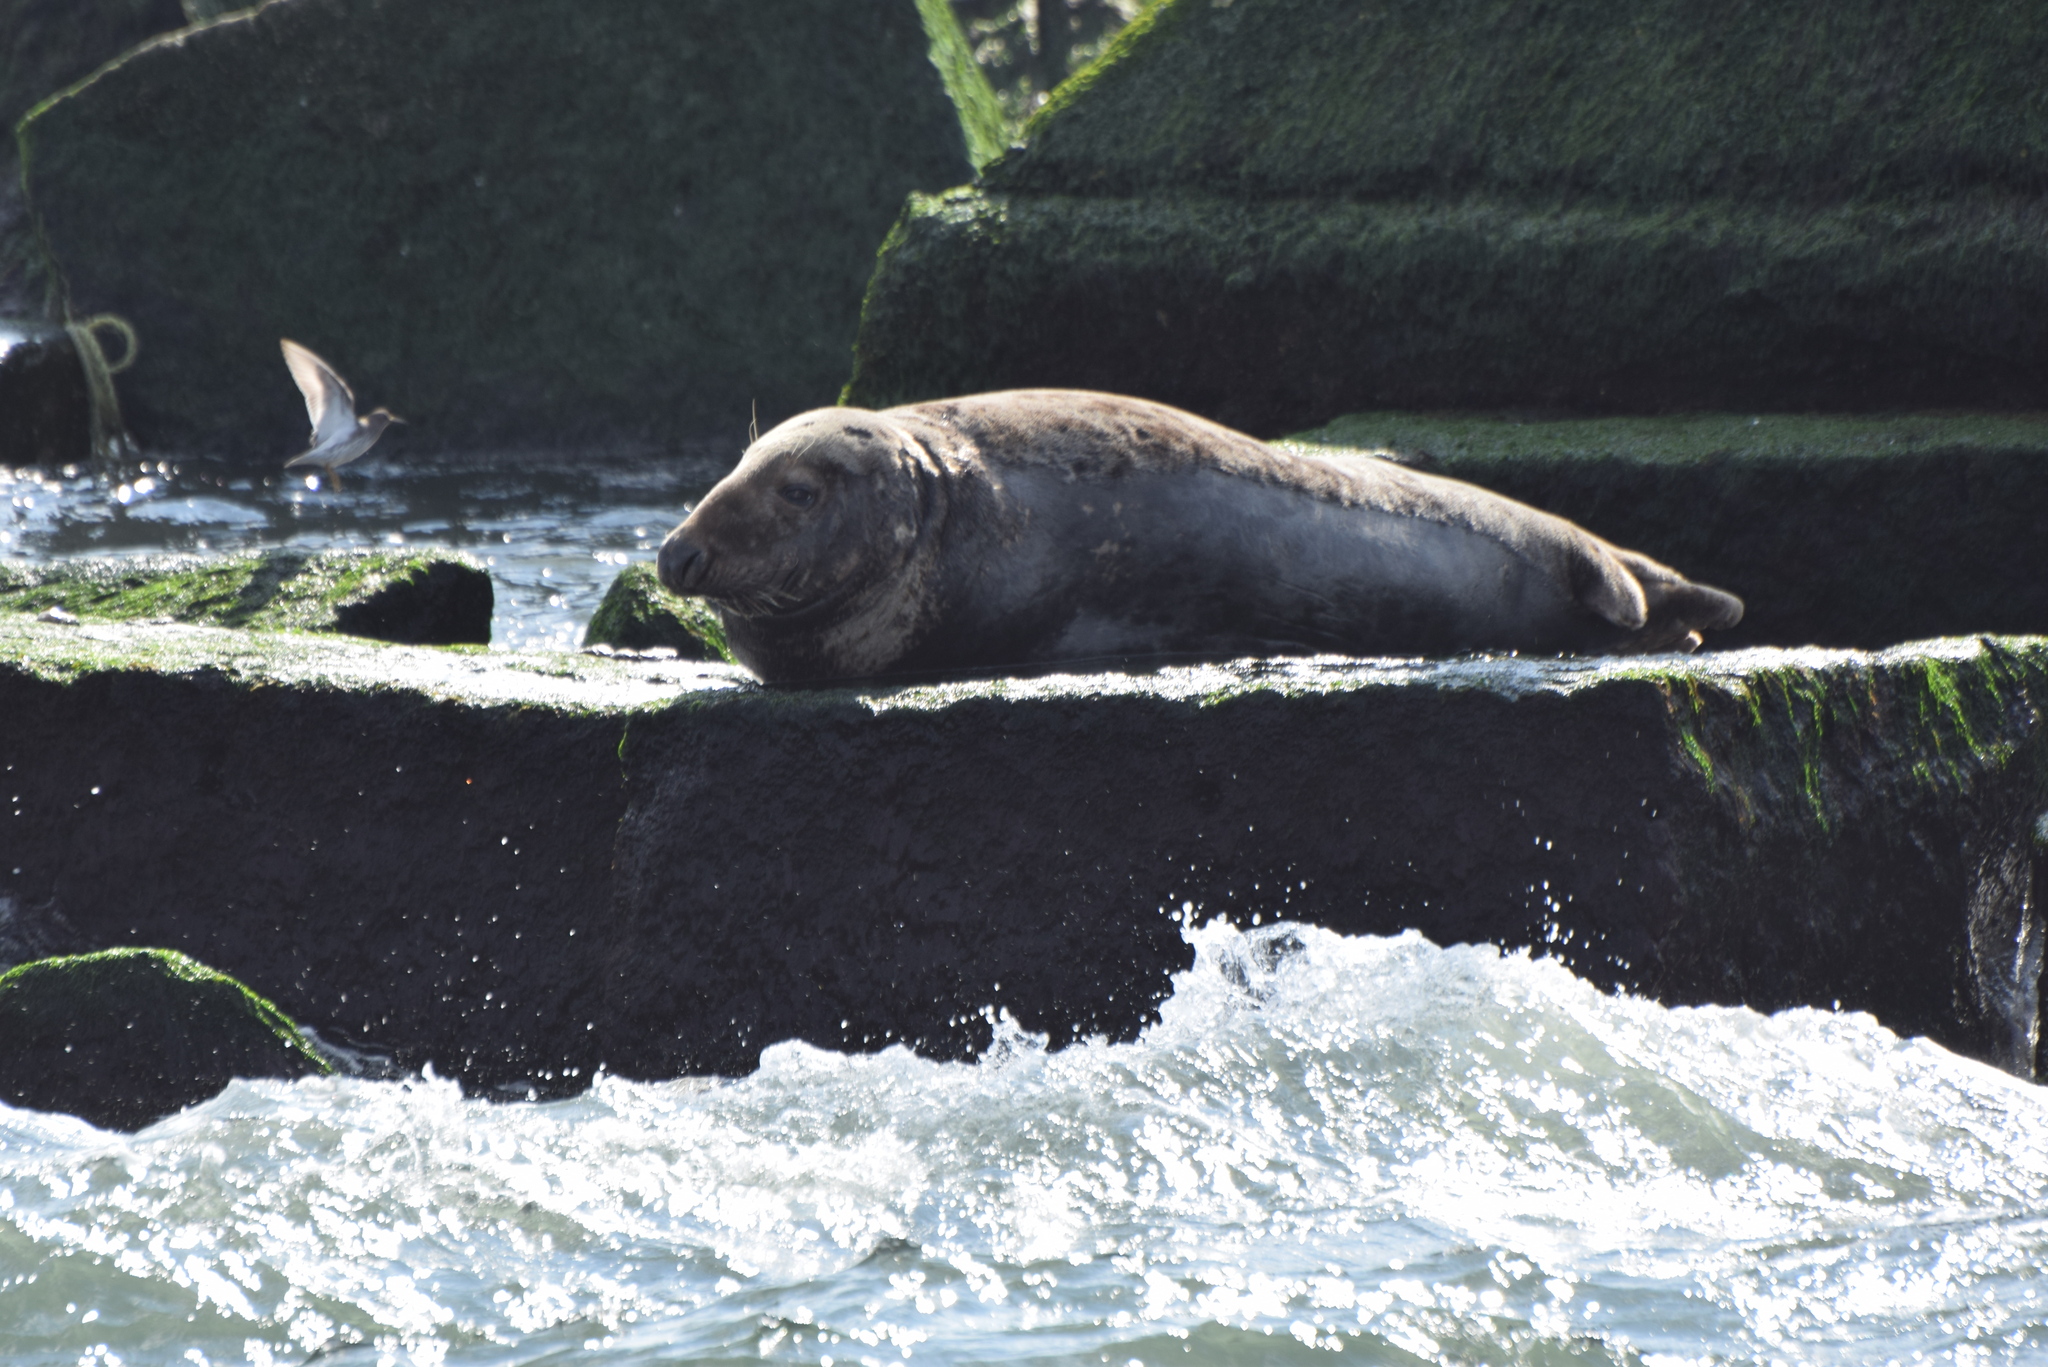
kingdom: Animalia
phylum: Chordata
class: Mammalia
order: Carnivora
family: Phocidae
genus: Halichoerus
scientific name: Halichoerus grypus
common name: Grey seal
